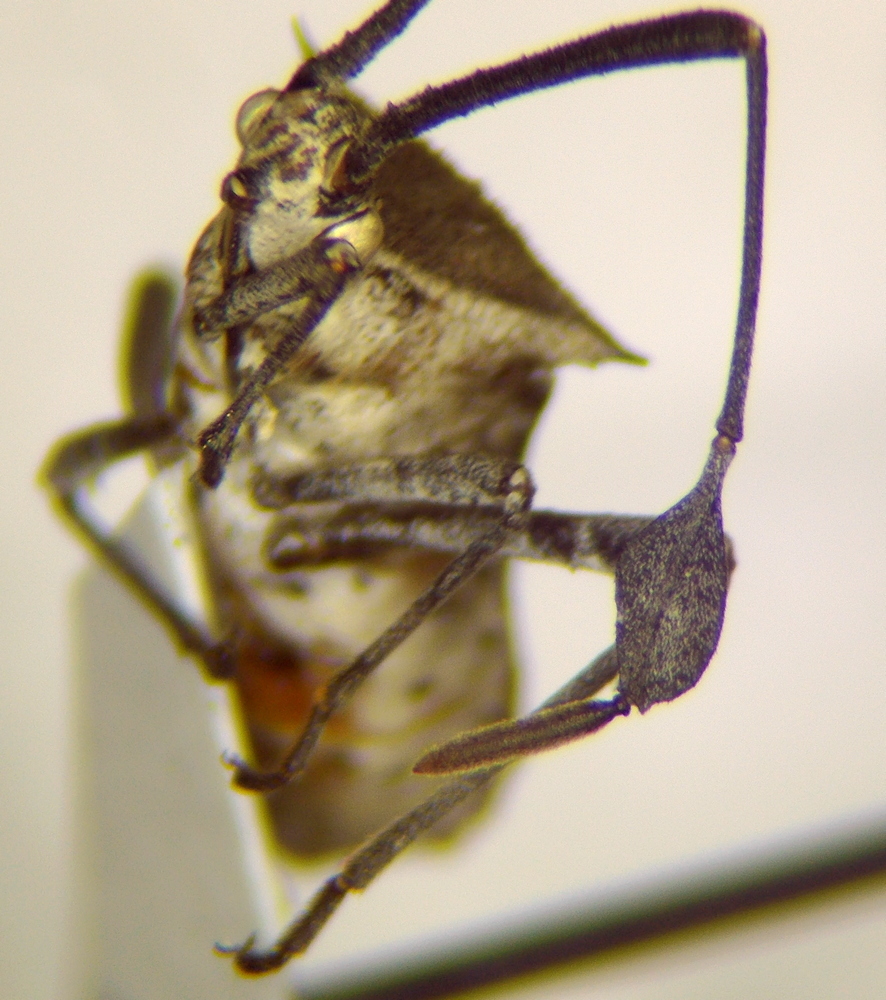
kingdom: Animalia
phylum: Arthropoda
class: Insecta
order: Hemiptera
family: Coreidae
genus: Chariesterus
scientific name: Chariesterus moestus
